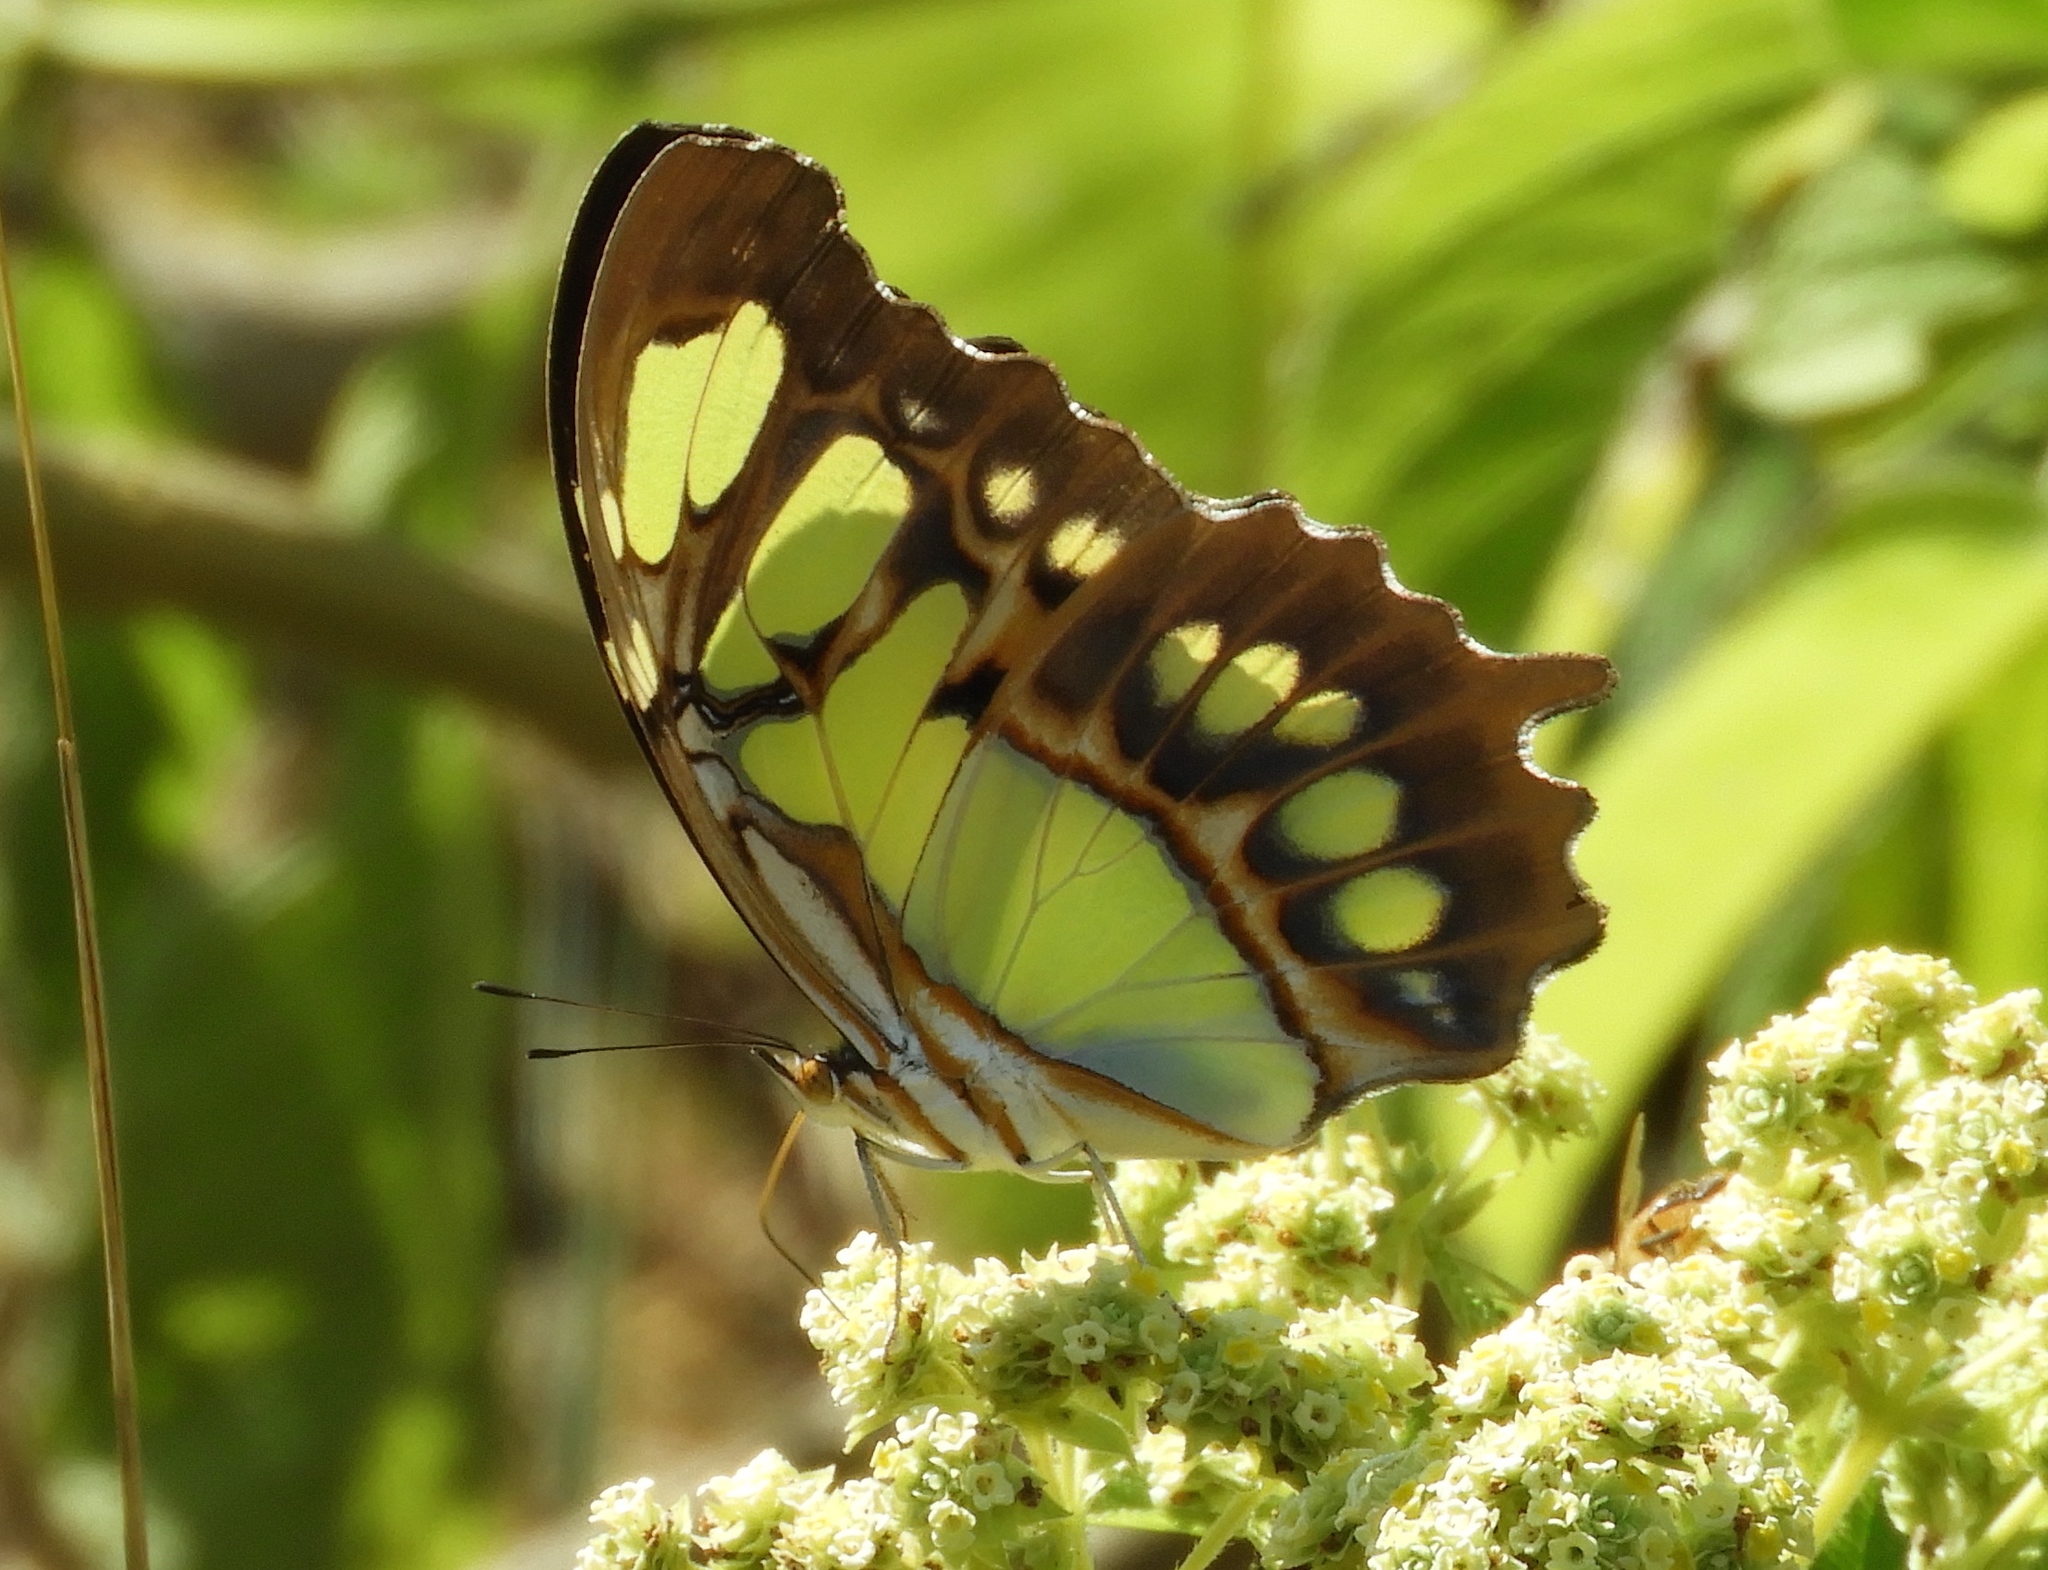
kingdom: Animalia
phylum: Arthropoda
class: Insecta
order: Lepidoptera
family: Nymphalidae
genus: Siproeta
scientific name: Siproeta stelenes
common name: Malachite
